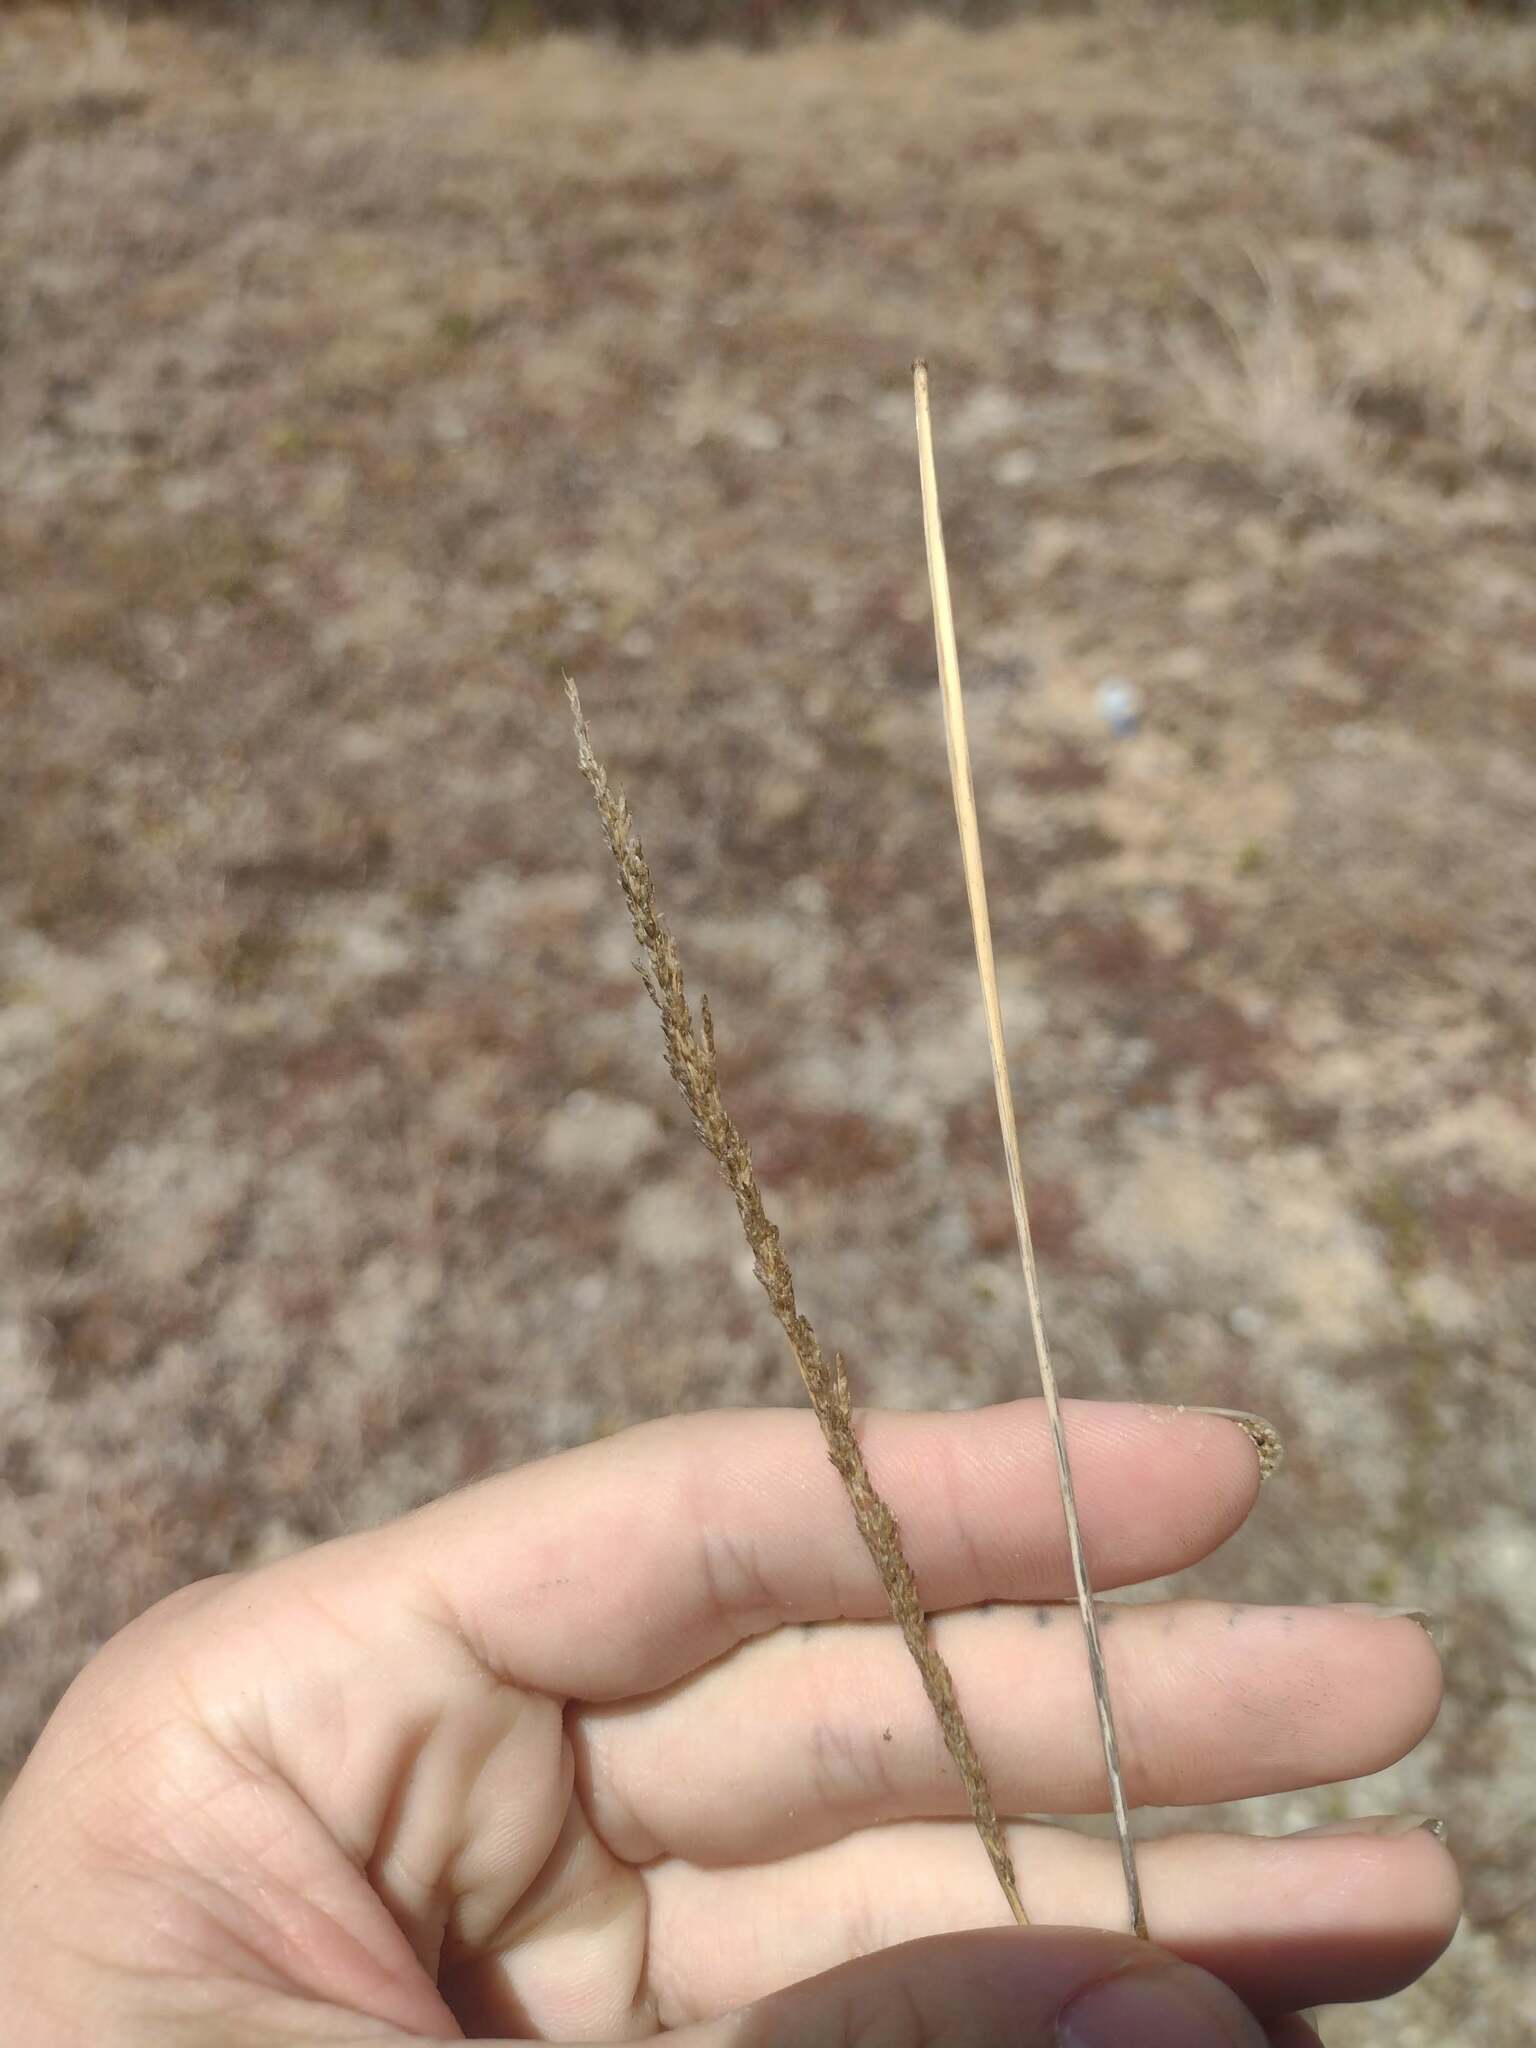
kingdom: Plantae
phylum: Tracheophyta
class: Liliopsida
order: Poales
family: Poaceae
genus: Sporobolus
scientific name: Sporobolus domingensis
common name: Coral dropseed
